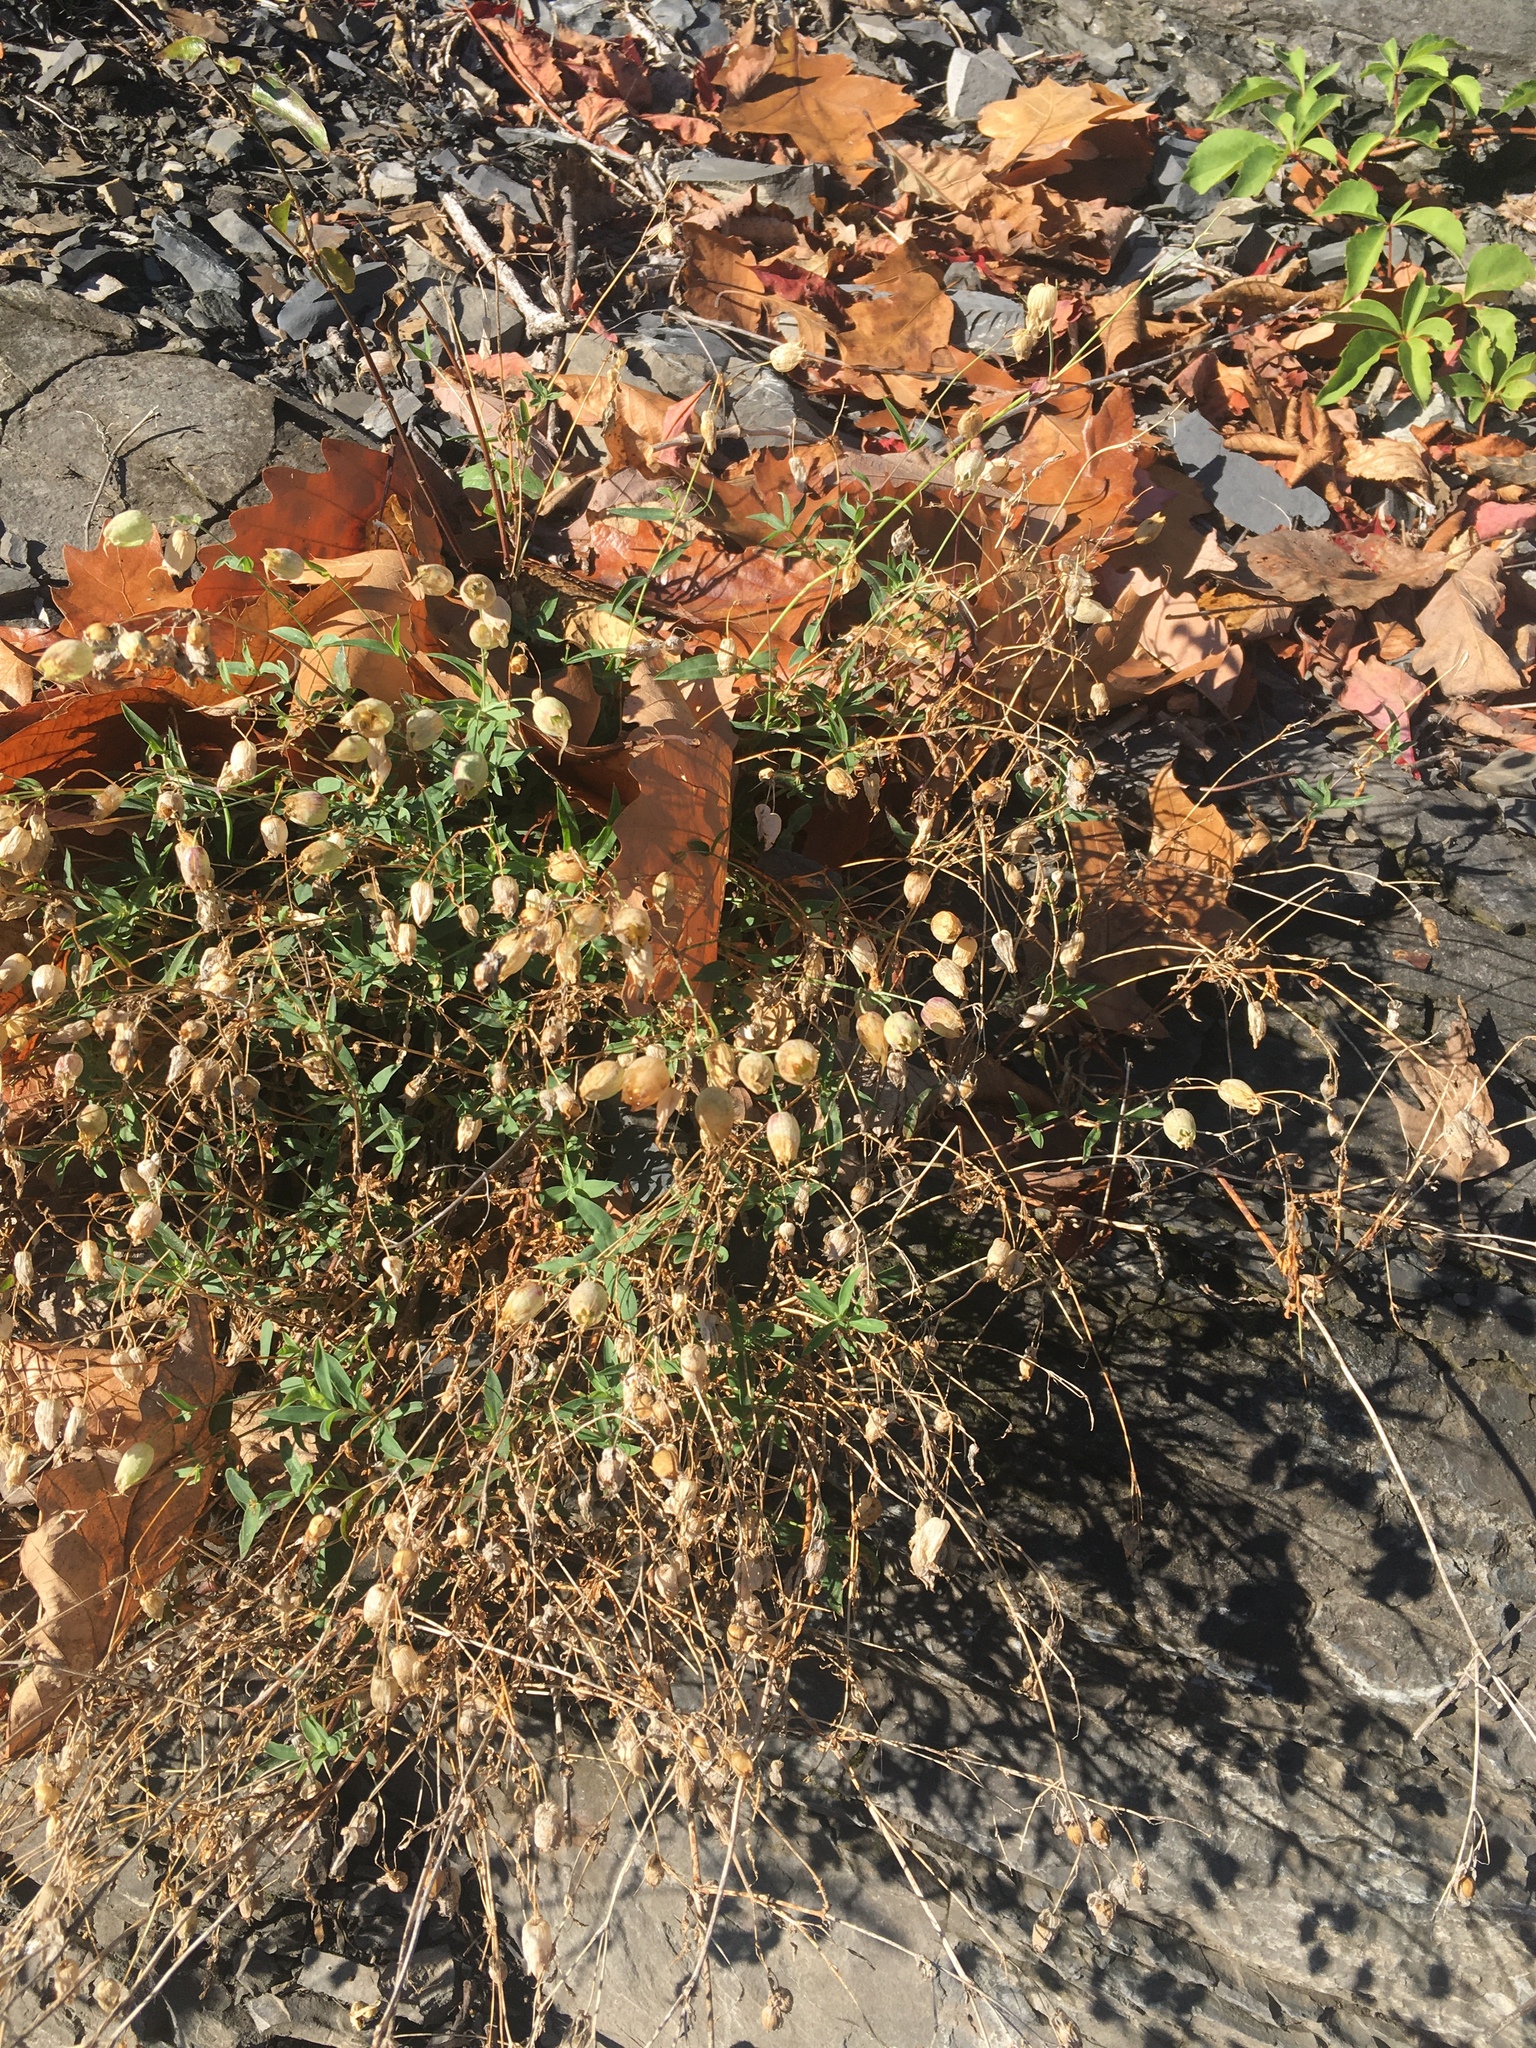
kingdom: Plantae
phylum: Tracheophyta
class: Magnoliopsida
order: Caryophyllales
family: Caryophyllaceae
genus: Silene
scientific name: Silene vulgaris
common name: Bladder campion
